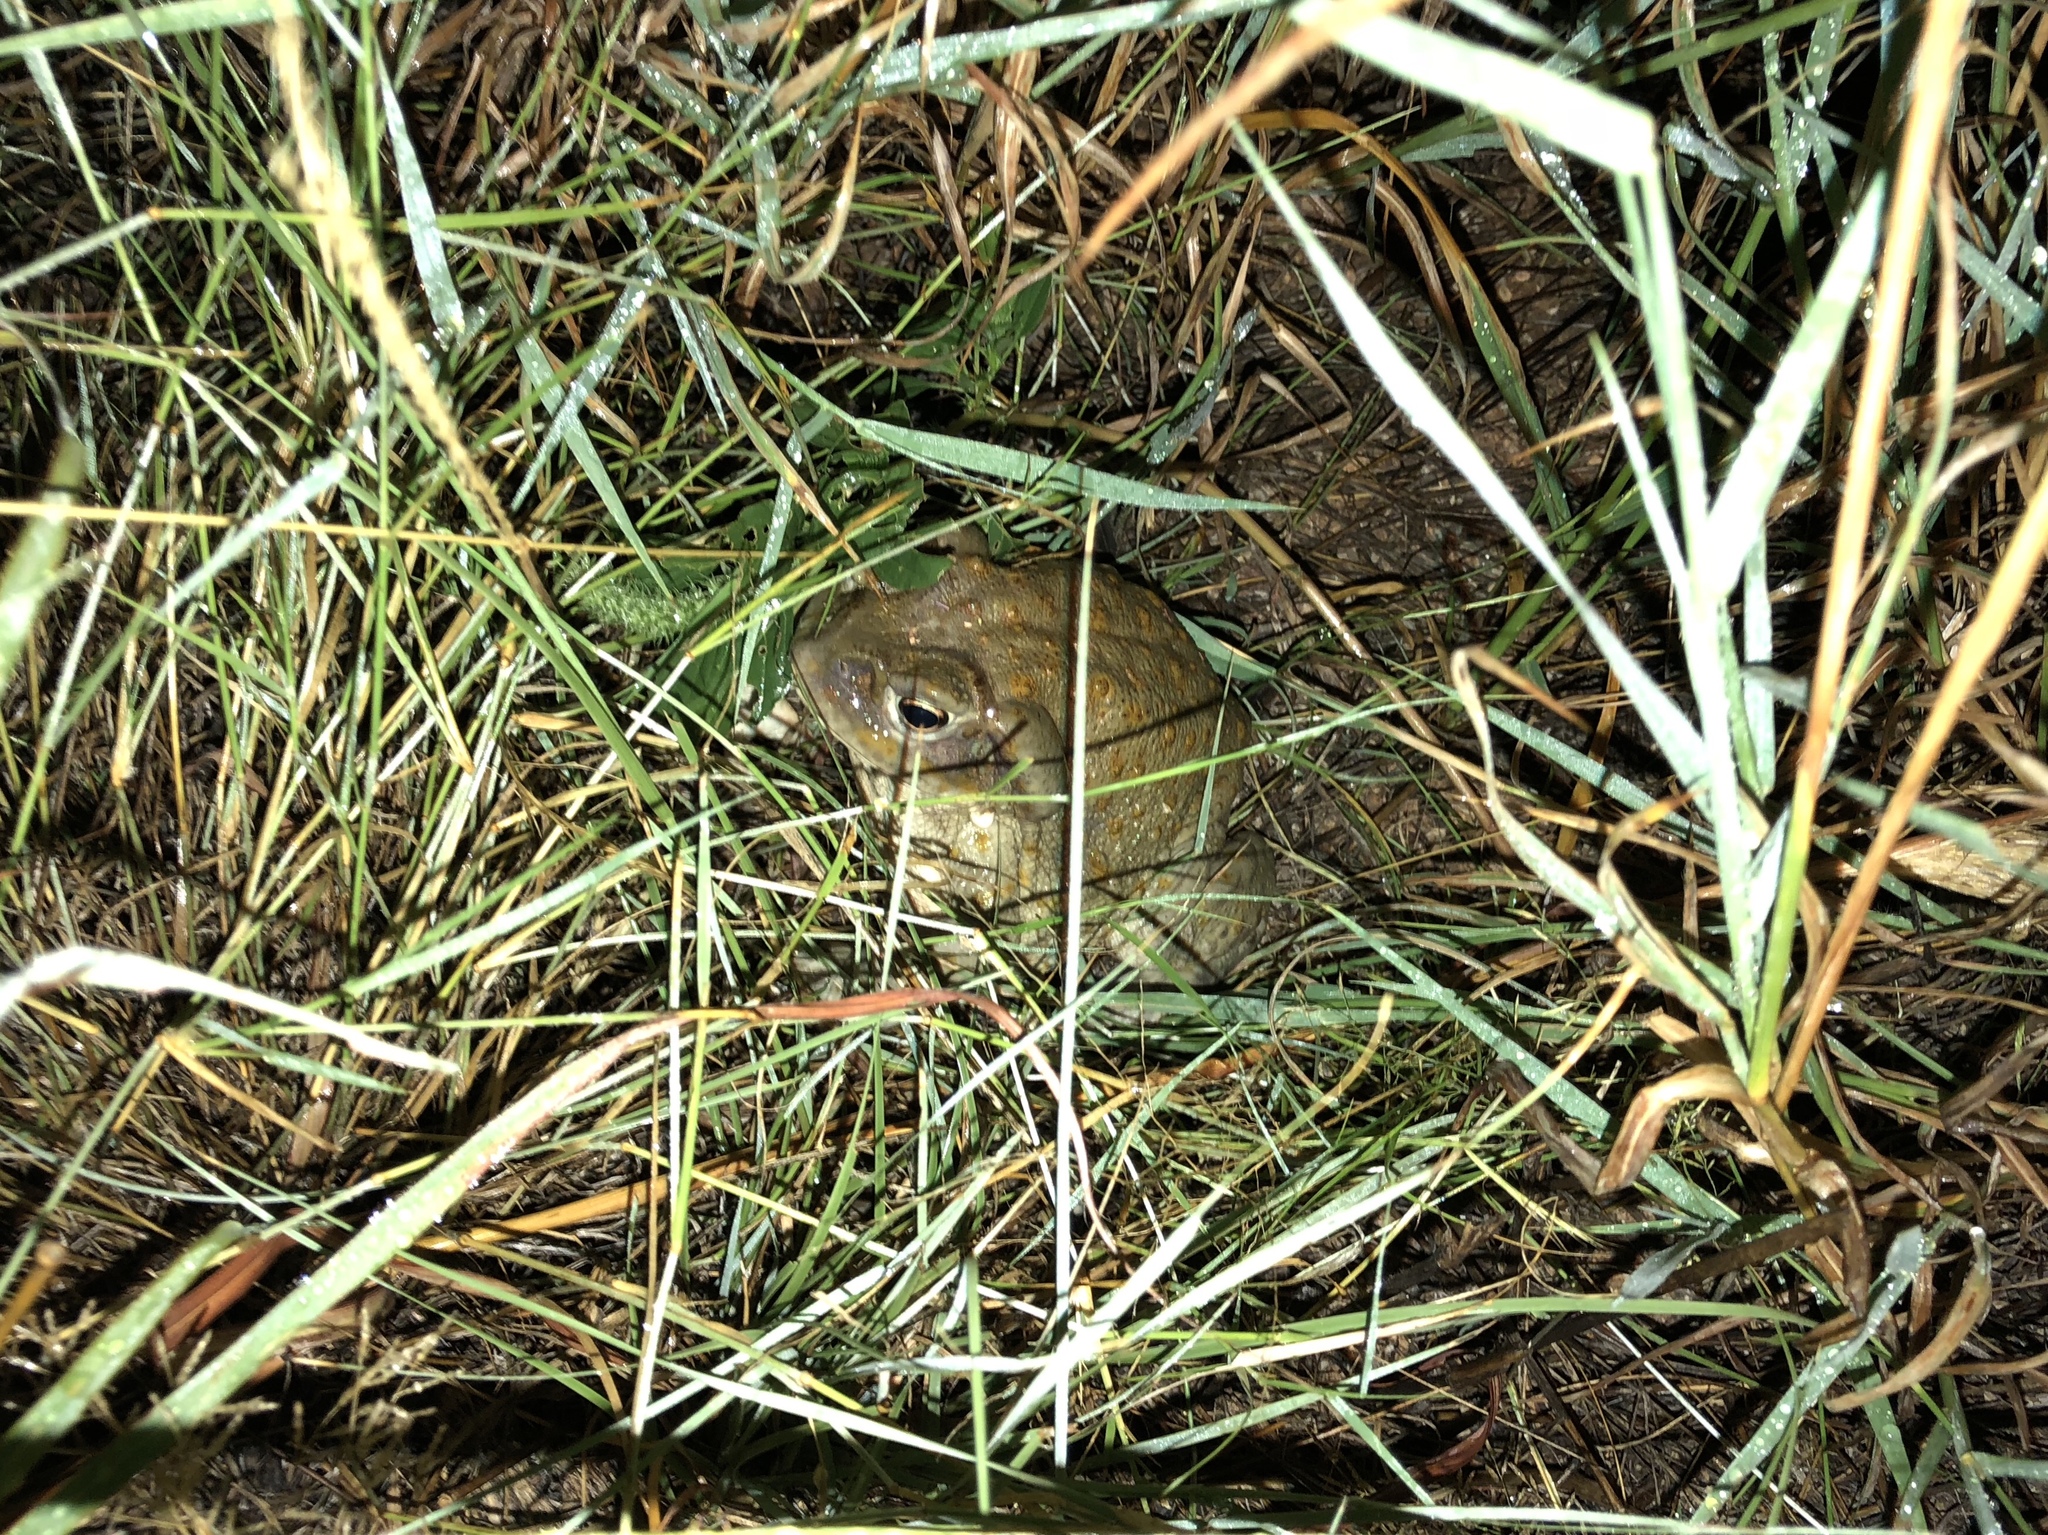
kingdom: Animalia
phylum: Chordata
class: Amphibia
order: Anura
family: Bufonidae
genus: Incilius
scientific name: Incilius alvarius
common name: Sonoran desert toad
